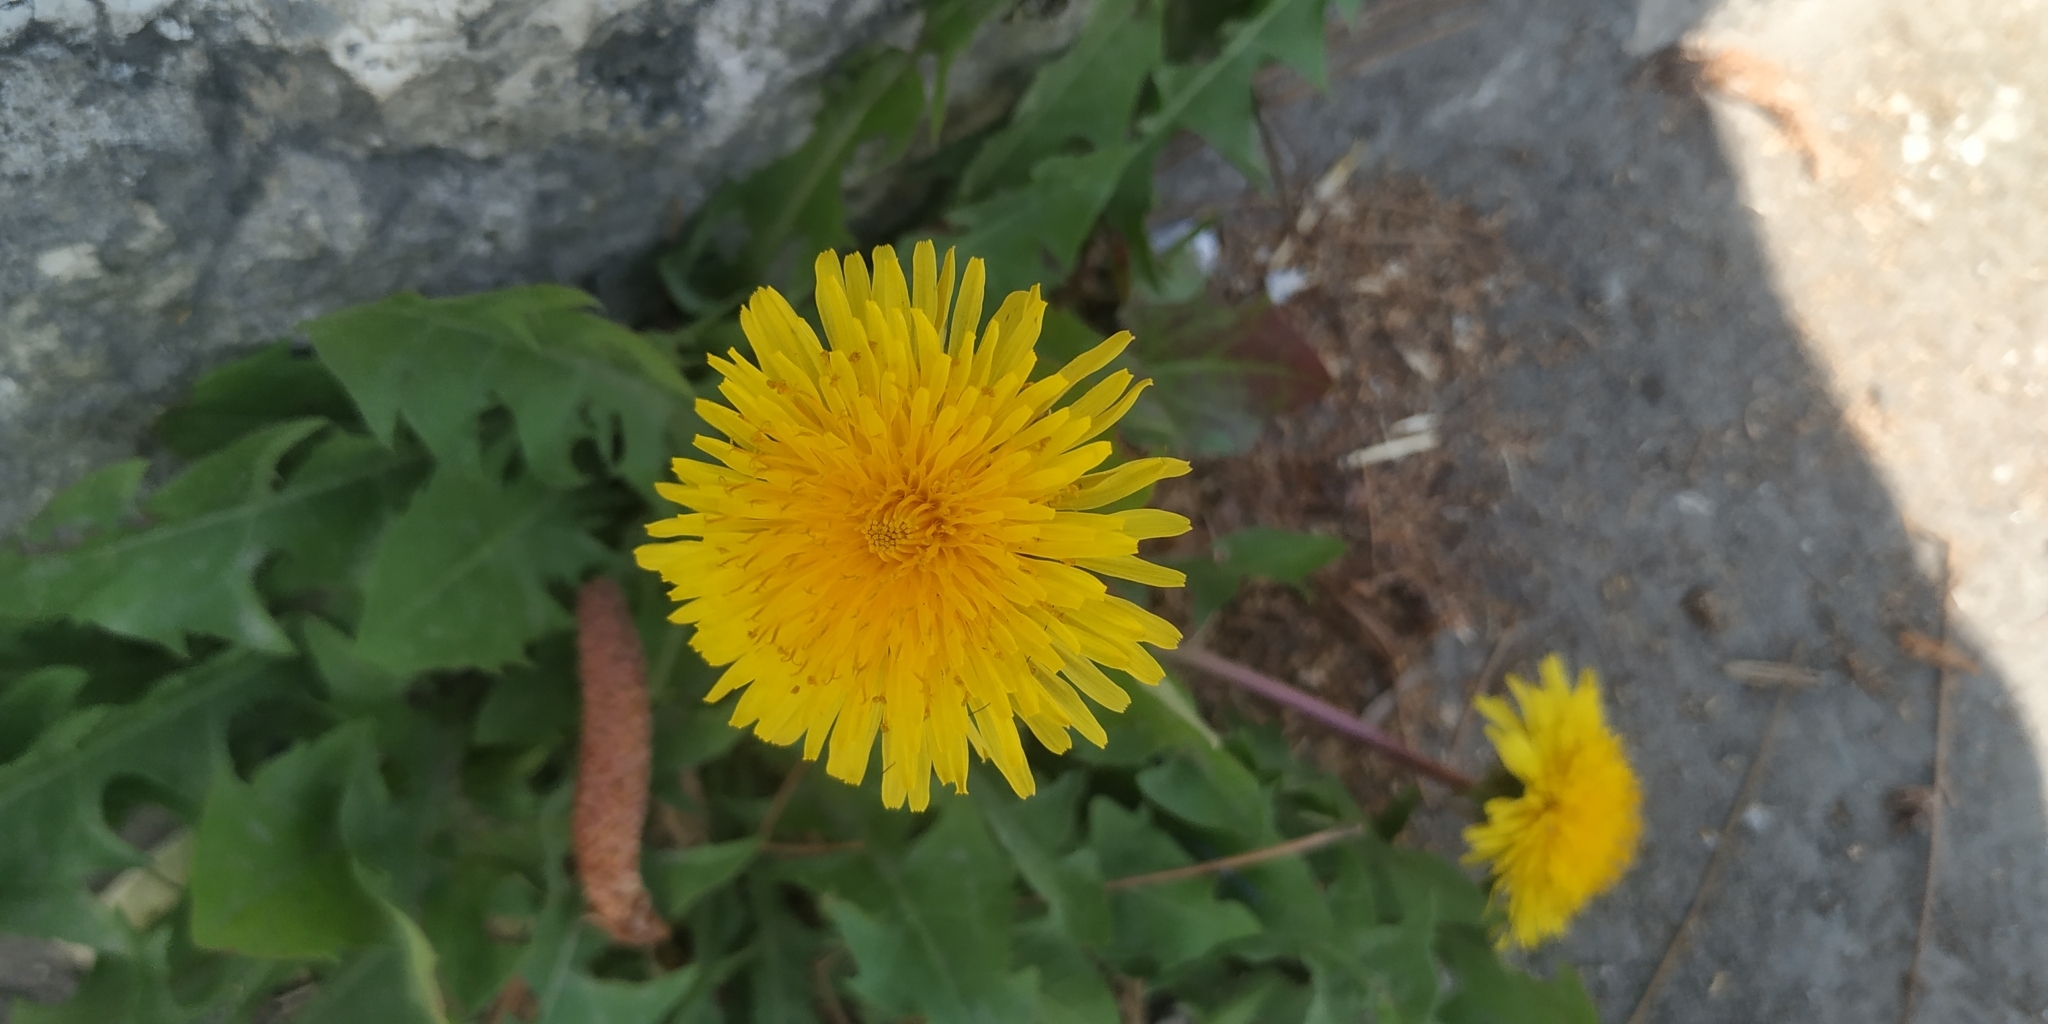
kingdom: Plantae
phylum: Tracheophyta
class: Magnoliopsida
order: Asterales
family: Asteraceae
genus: Taraxacum
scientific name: Taraxacum officinale
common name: Common dandelion
